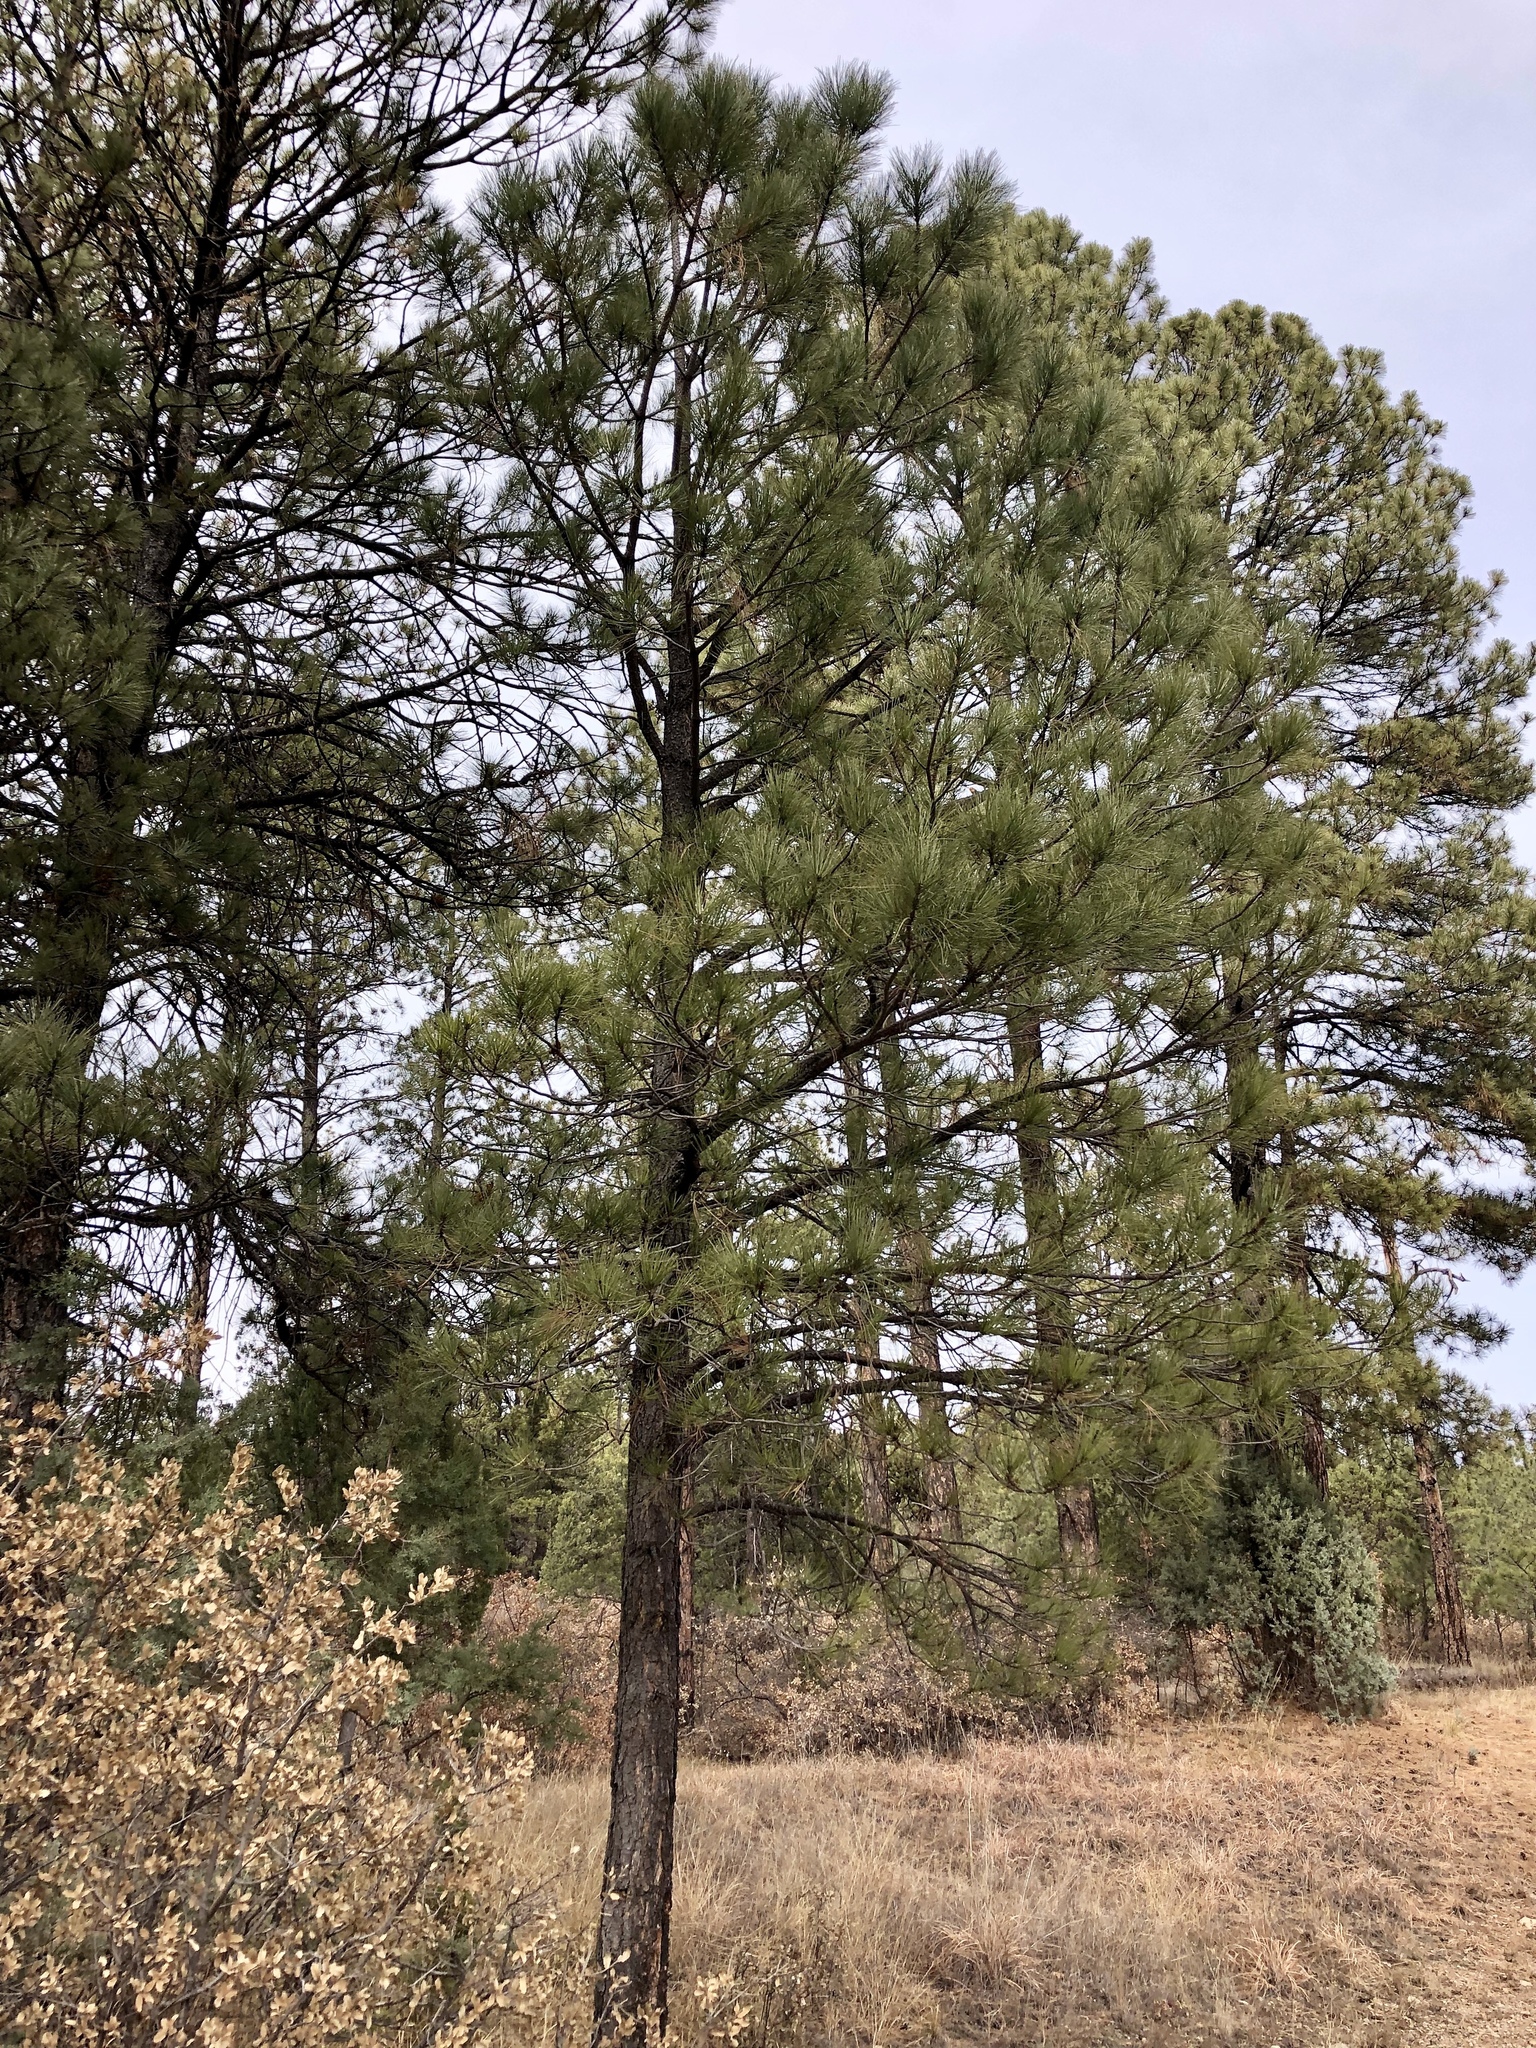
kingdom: Plantae
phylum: Tracheophyta
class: Pinopsida
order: Pinales
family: Pinaceae
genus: Pinus
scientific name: Pinus ponderosa
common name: Western yellow-pine
